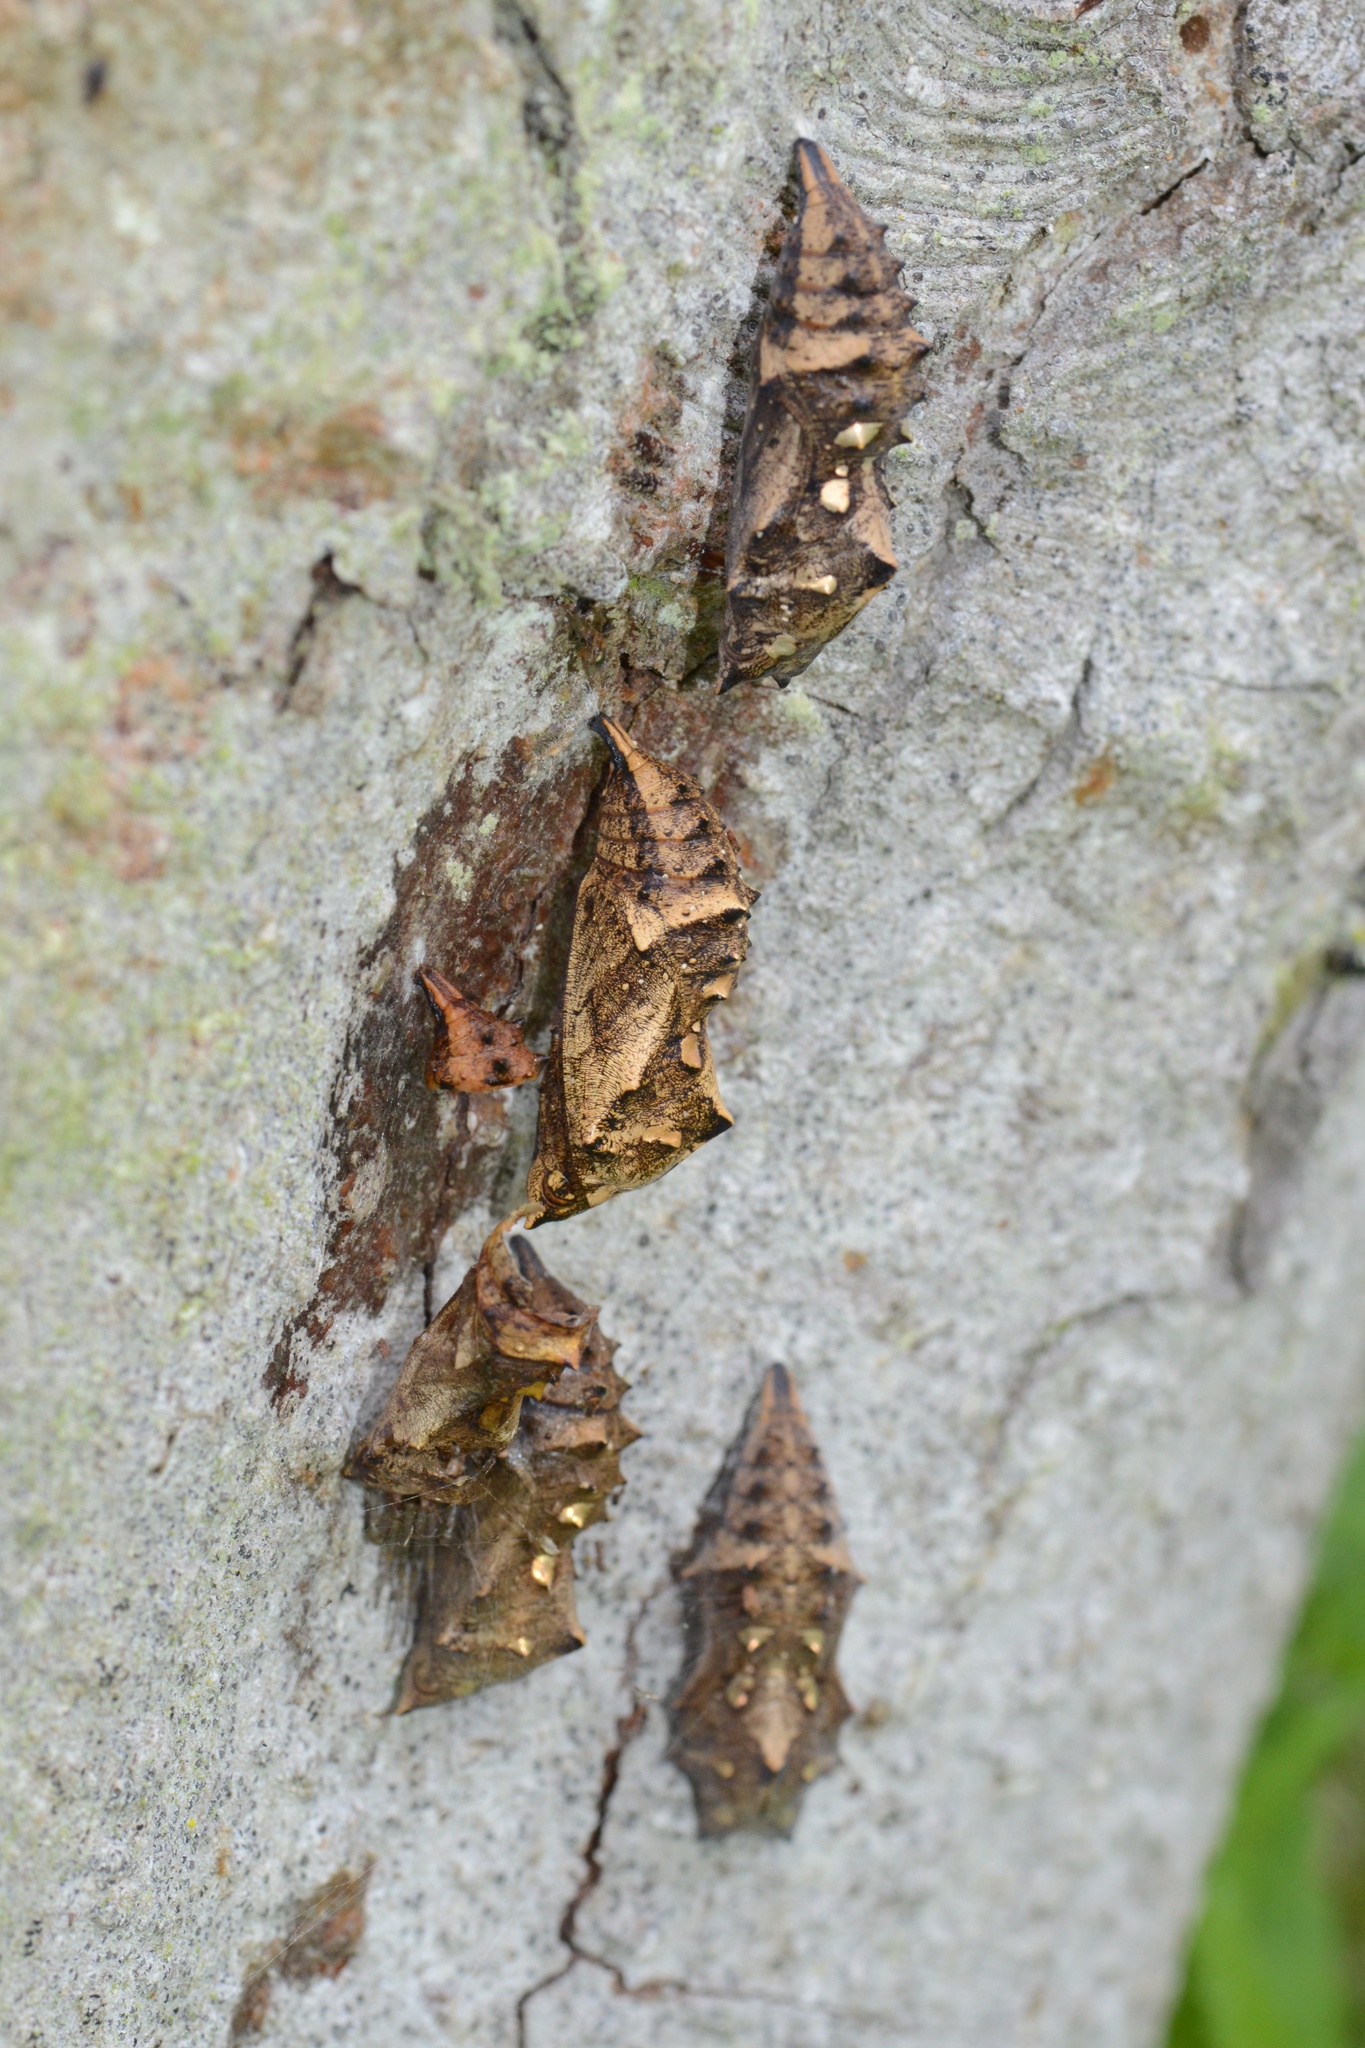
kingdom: Animalia
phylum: Arthropoda
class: Insecta
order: Lepidoptera
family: Nymphalidae
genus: Vanessa
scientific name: Vanessa itea
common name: Yellow admiral
